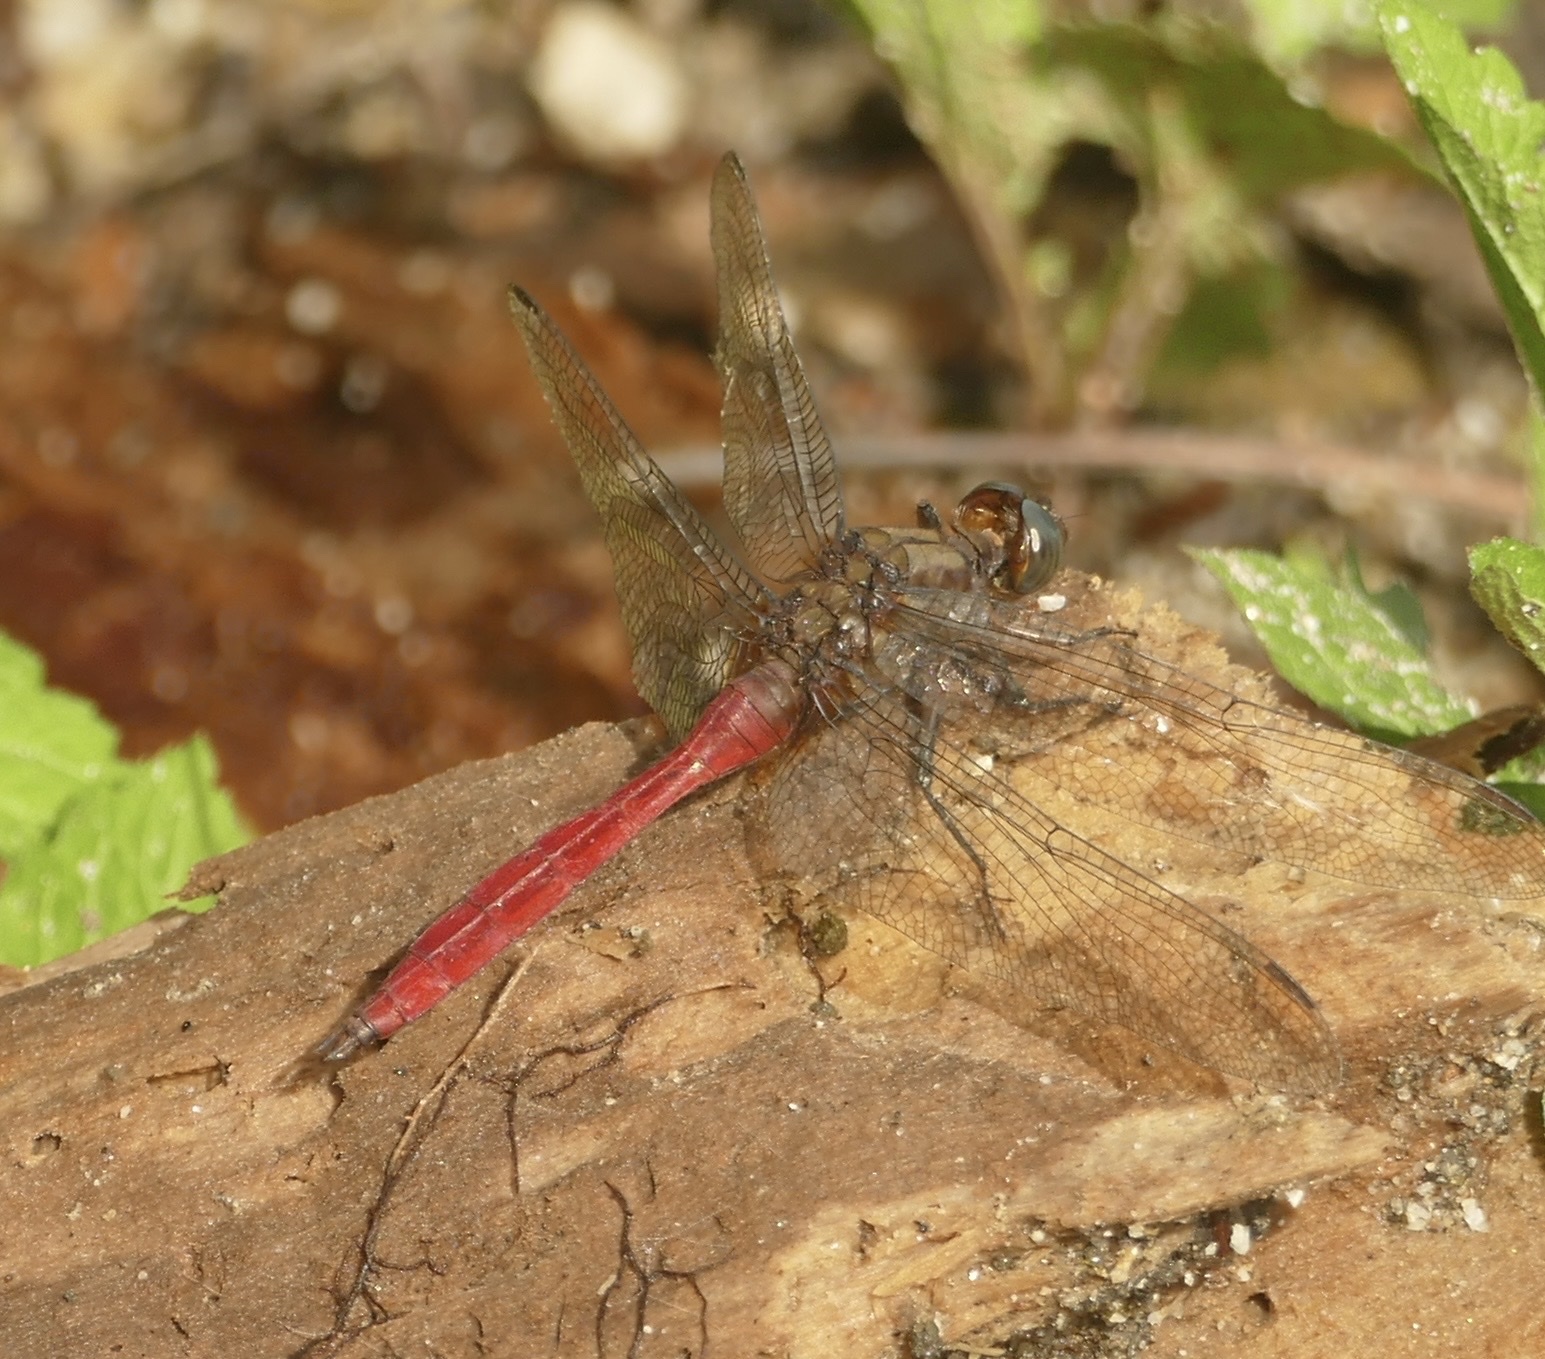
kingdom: Animalia
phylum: Arthropoda
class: Insecta
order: Odonata
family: Libellulidae
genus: Orthetrum
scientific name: Orthetrum villosovittatum
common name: Firery skimmer
